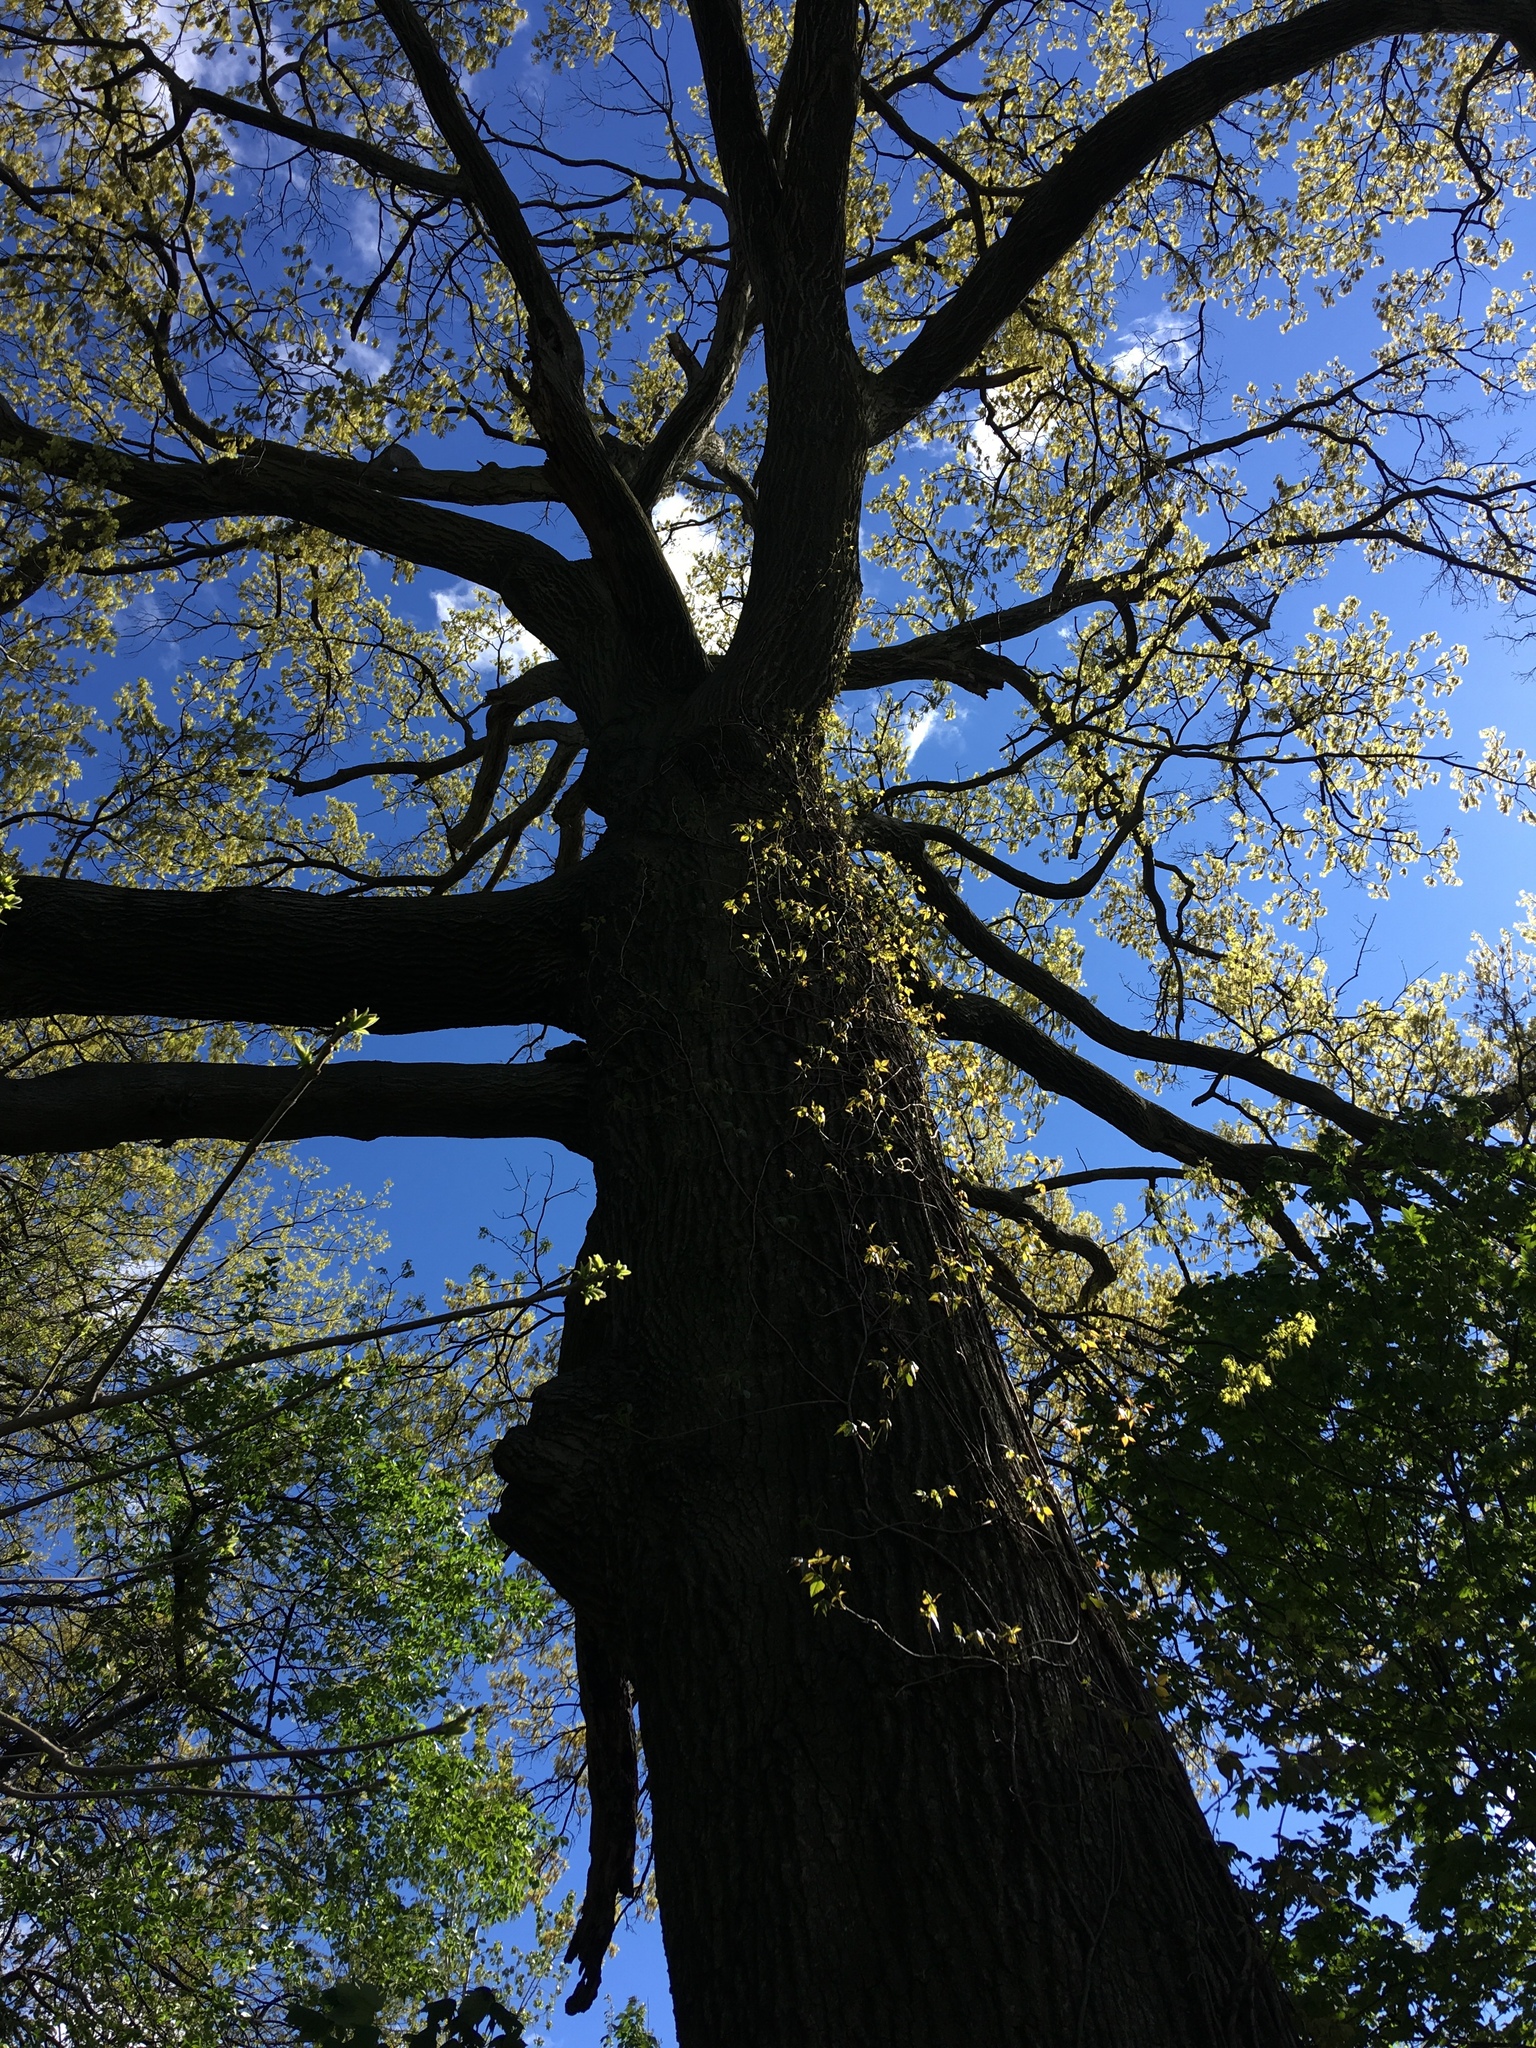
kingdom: Plantae
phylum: Tracheophyta
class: Magnoliopsida
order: Fagales
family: Fagaceae
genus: Quercus
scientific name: Quercus rubra
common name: Red oak
